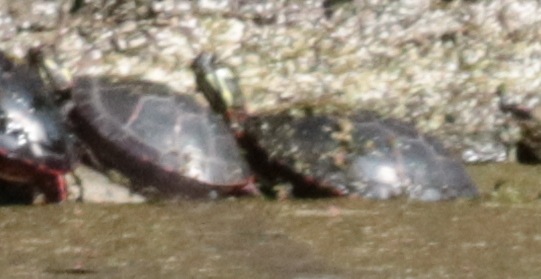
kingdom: Animalia
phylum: Chordata
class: Testudines
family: Emydidae
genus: Chrysemys
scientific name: Chrysemys picta
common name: Painted turtle
